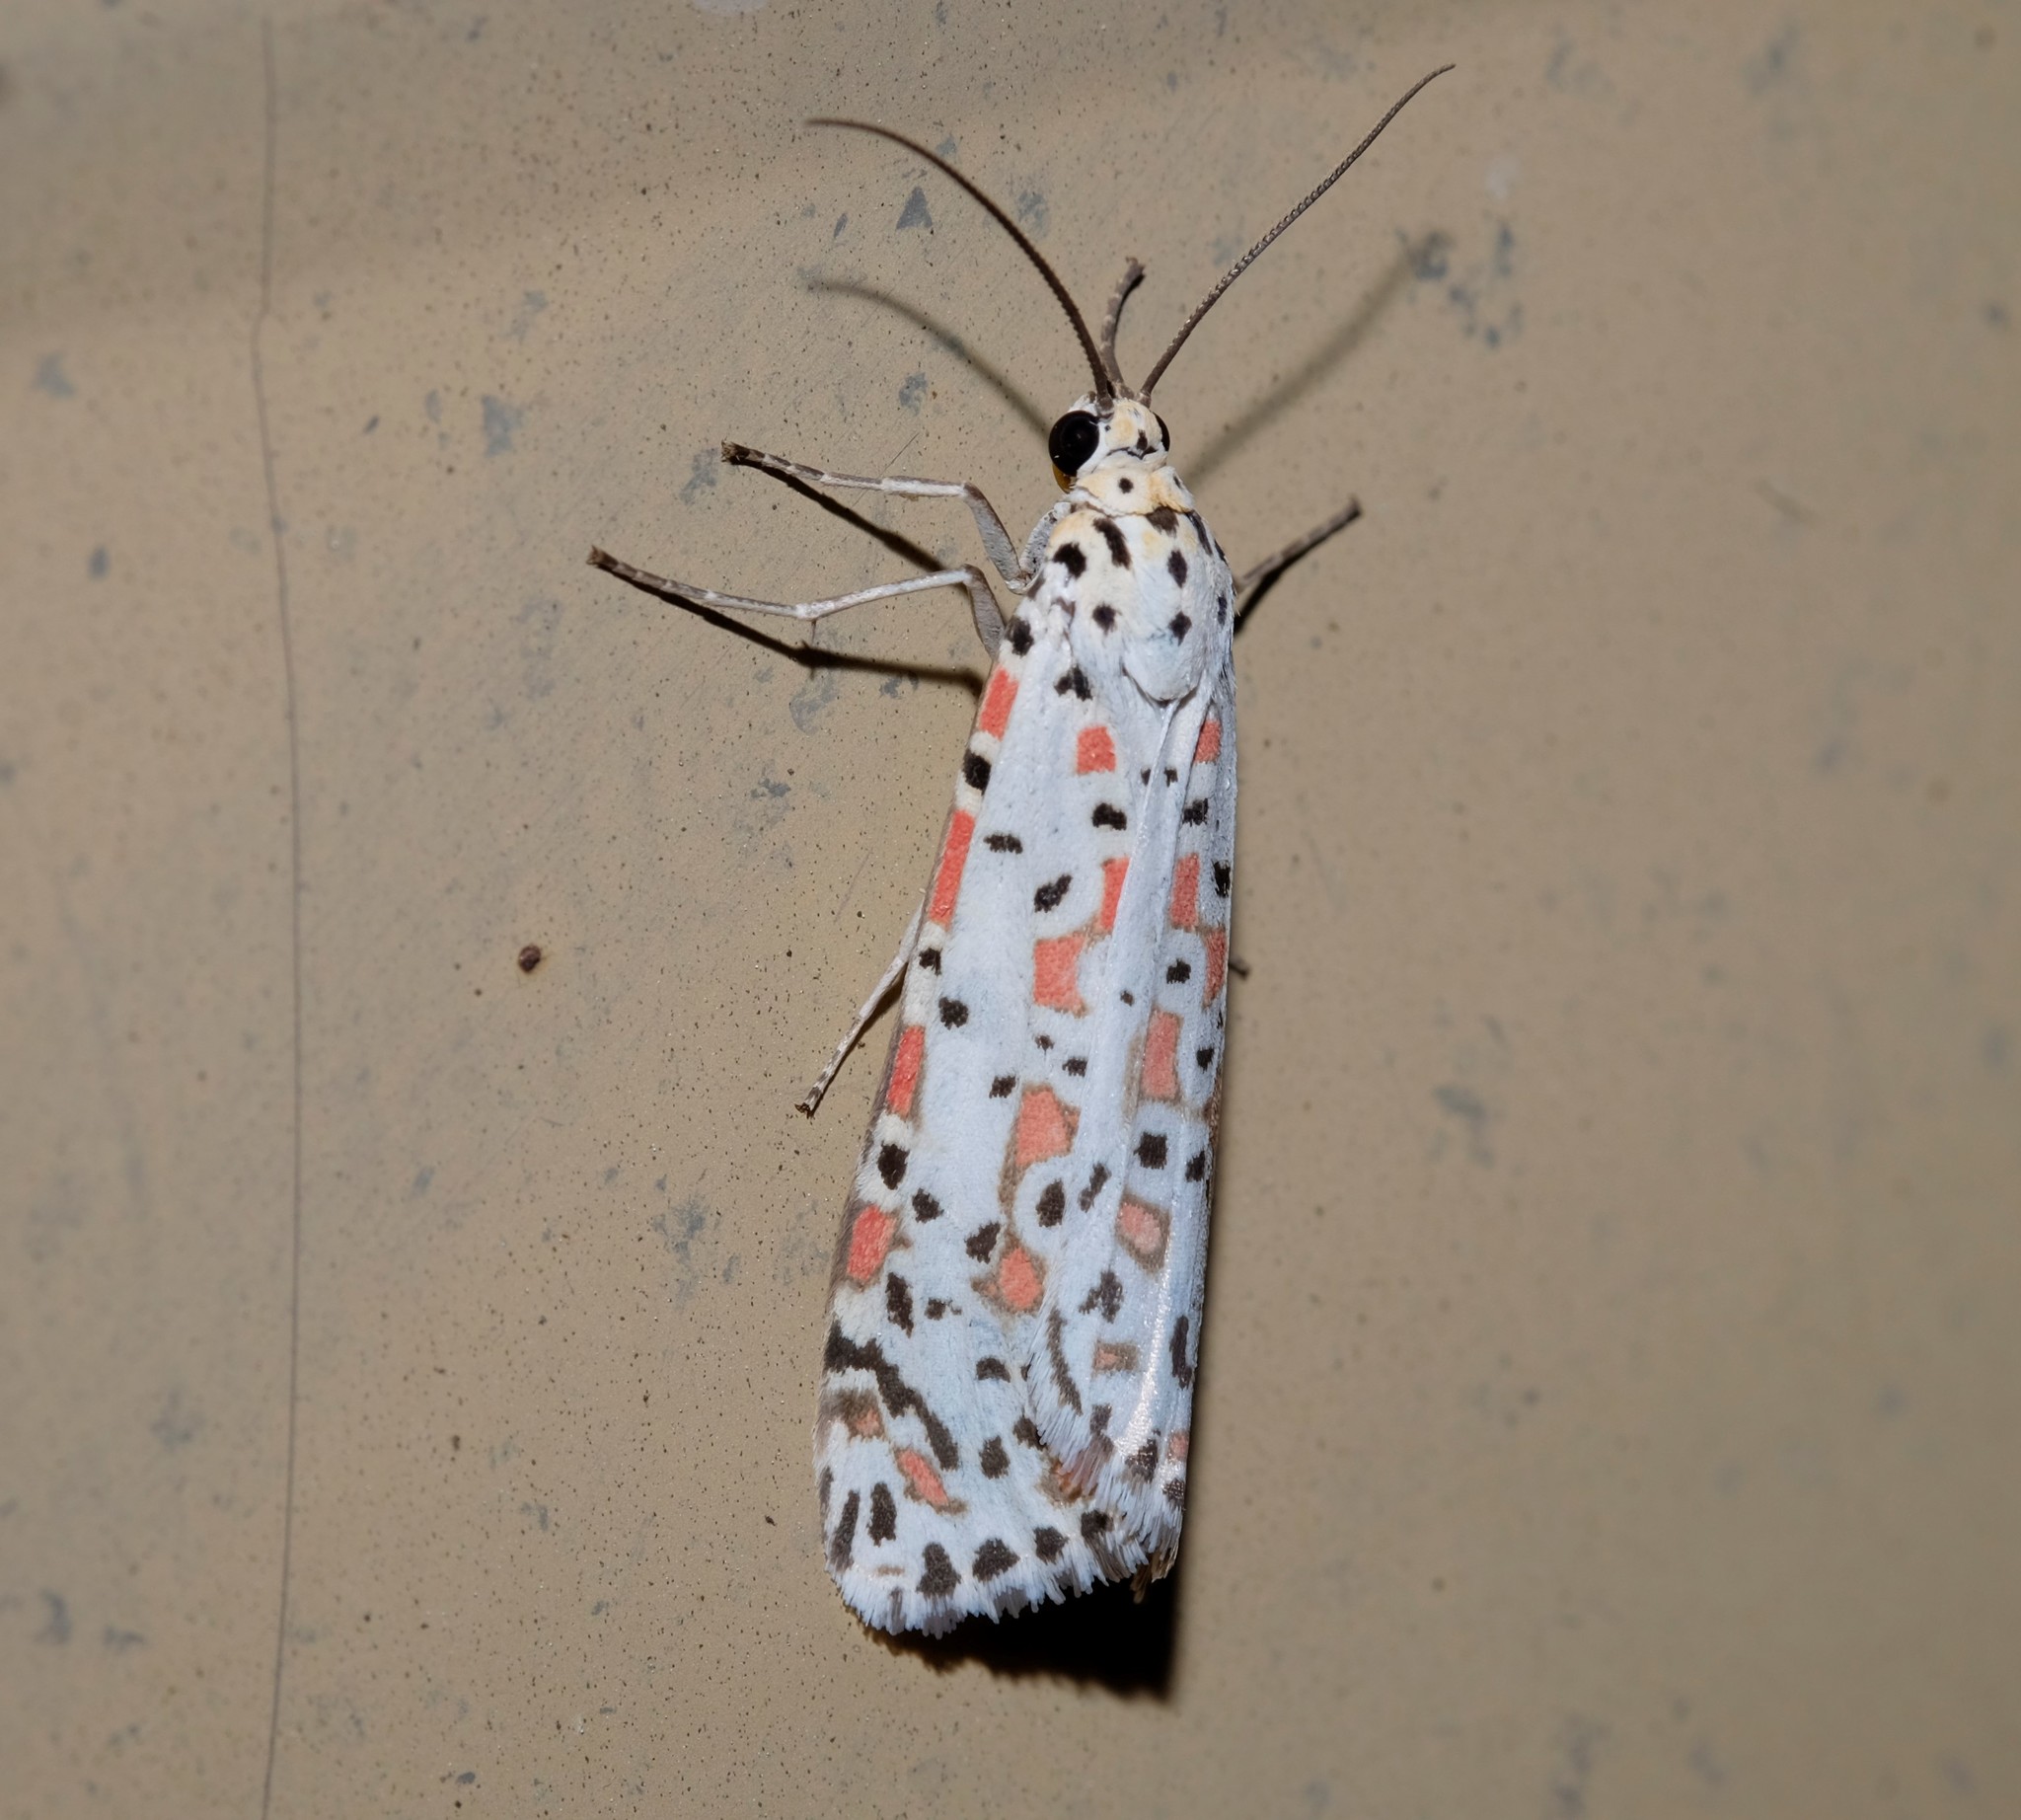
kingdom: Animalia
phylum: Arthropoda
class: Insecta
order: Lepidoptera
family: Erebidae
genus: Utetheisa
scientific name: Utetheisa pulchelloides
